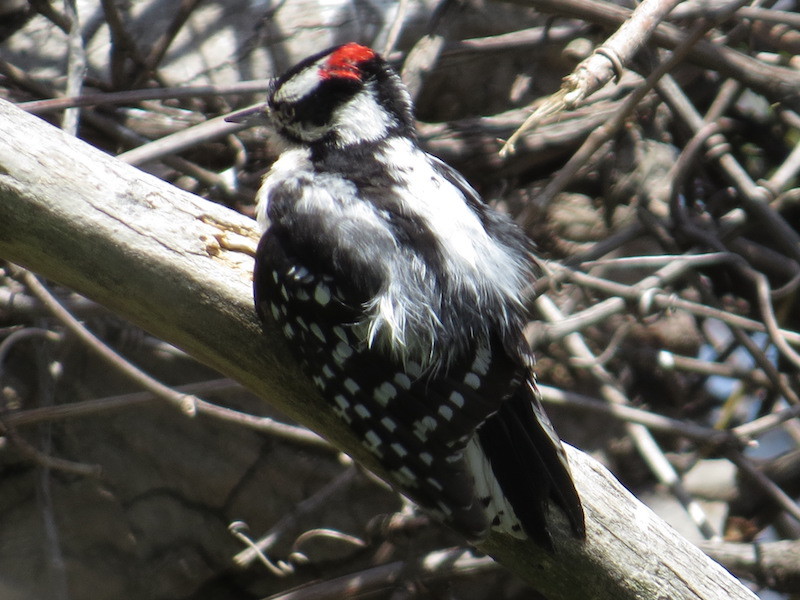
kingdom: Animalia
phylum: Chordata
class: Aves
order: Piciformes
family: Picidae
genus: Dryobates
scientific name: Dryobates pubescens
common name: Downy woodpecker
